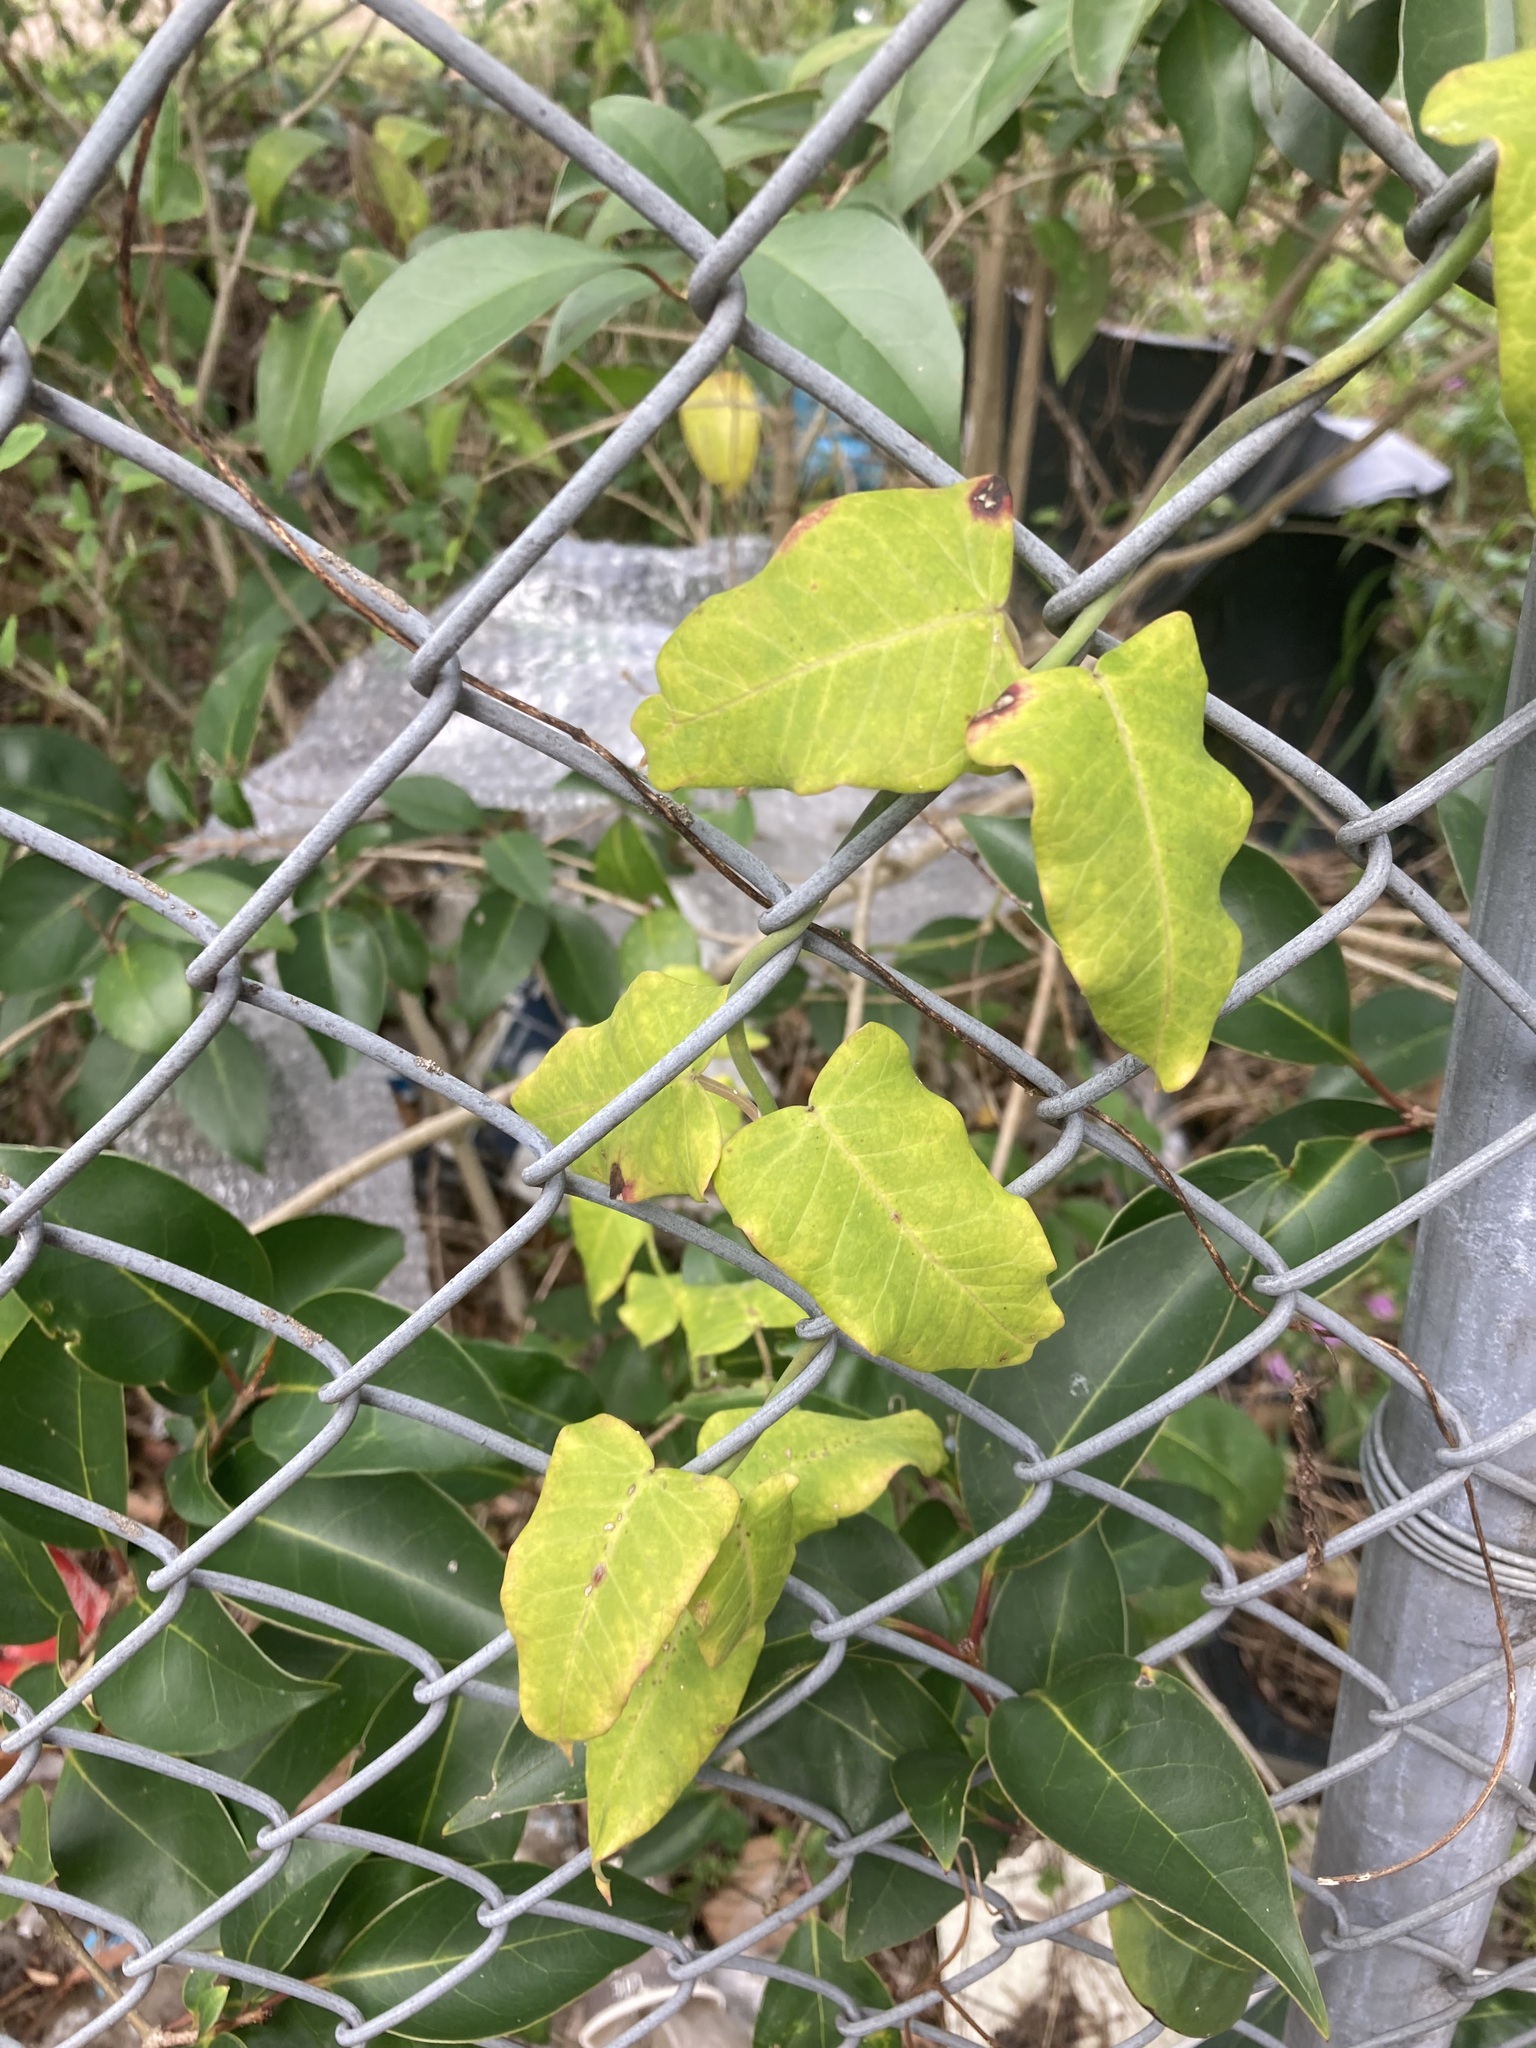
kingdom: Plantae
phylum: Tracheophyta
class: Magnoliopsida
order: Gentianales
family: Apocynaceae
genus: Araujia
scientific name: Araujia sericifera
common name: White bladderflower
